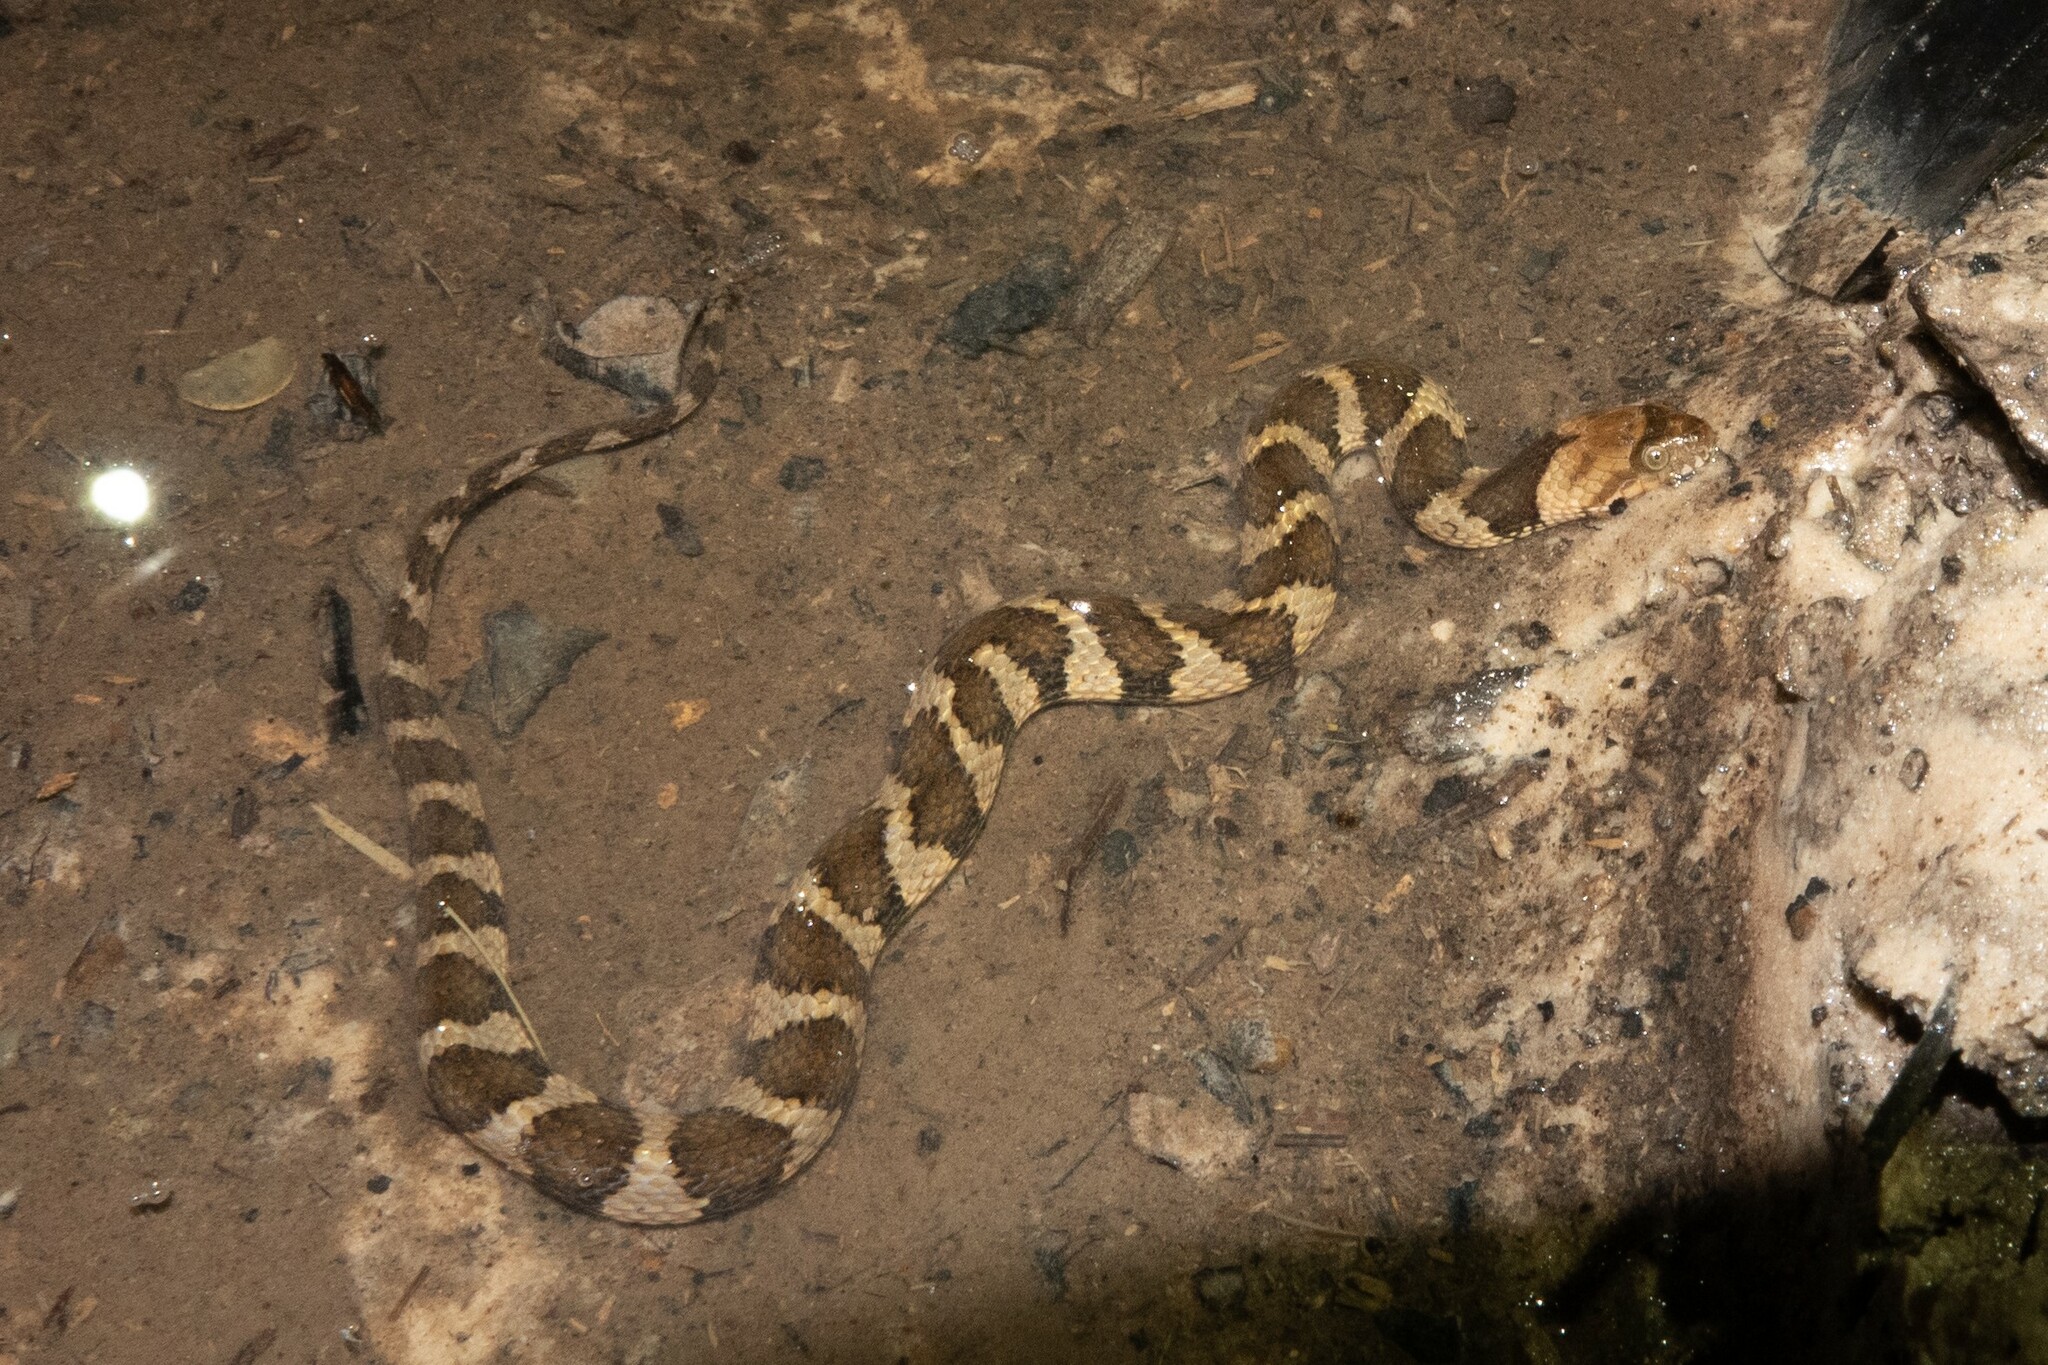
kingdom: Animalia
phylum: Chordata
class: Squamata
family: Colubridae
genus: Helicops
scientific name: Helicops angulatus
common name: Mountain keelback
